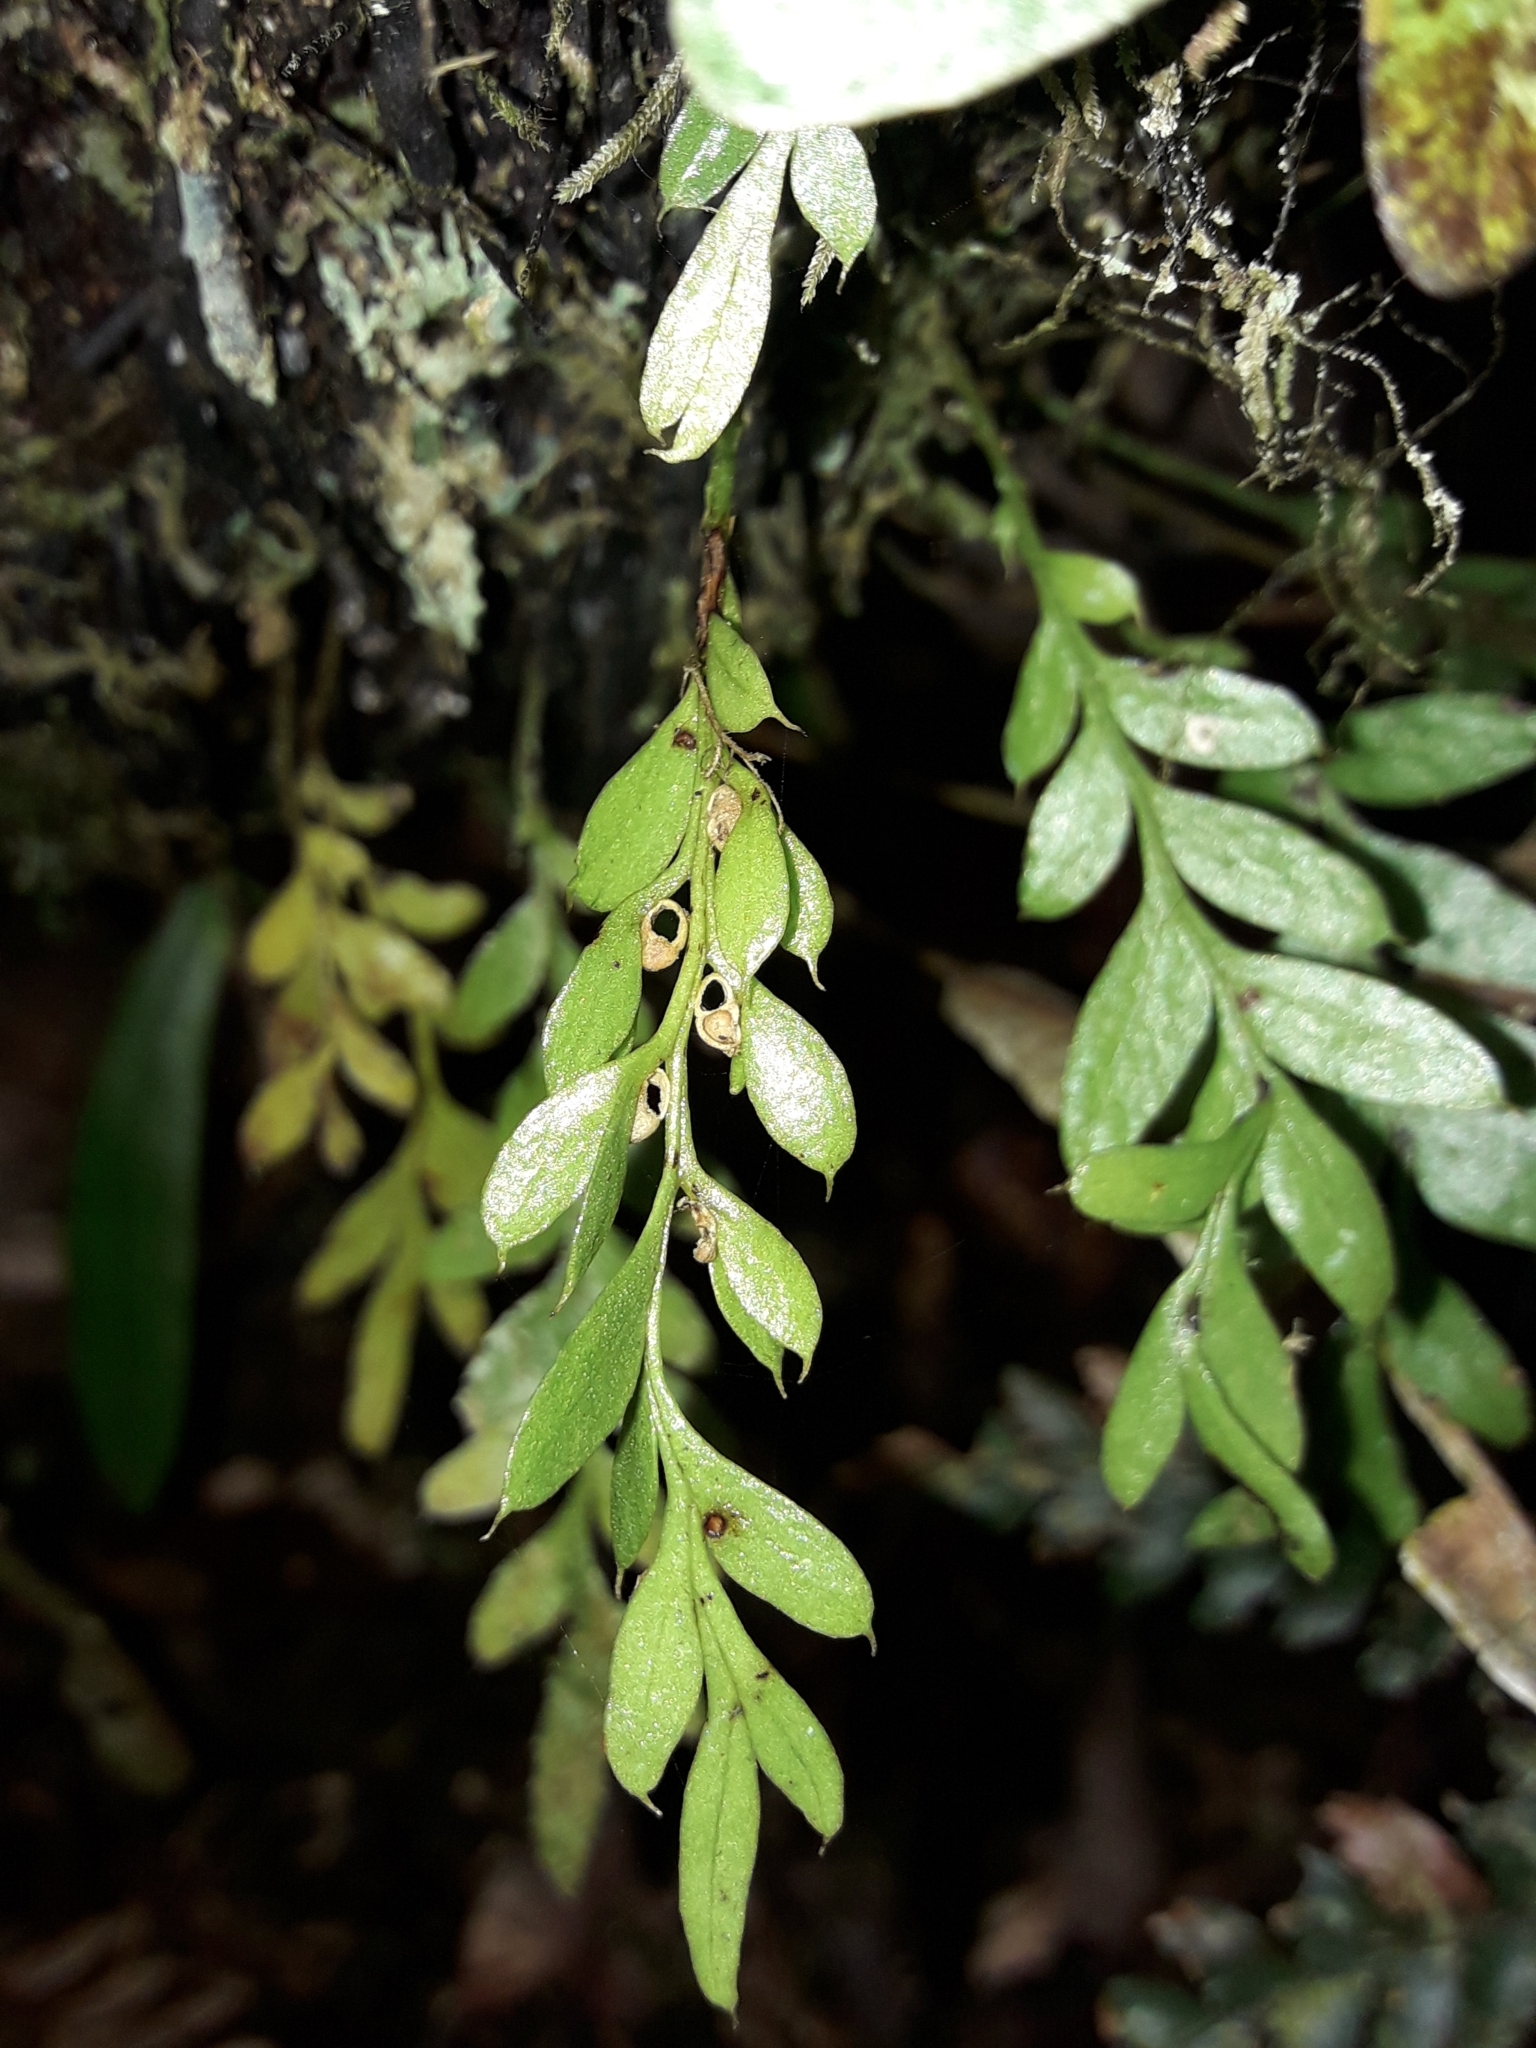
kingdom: Plantae
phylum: Tracheophyta
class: Polypodiopsida
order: Psilotales
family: Psilotaceae
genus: Tmesipteris
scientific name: Tmesipteris lanceolata
